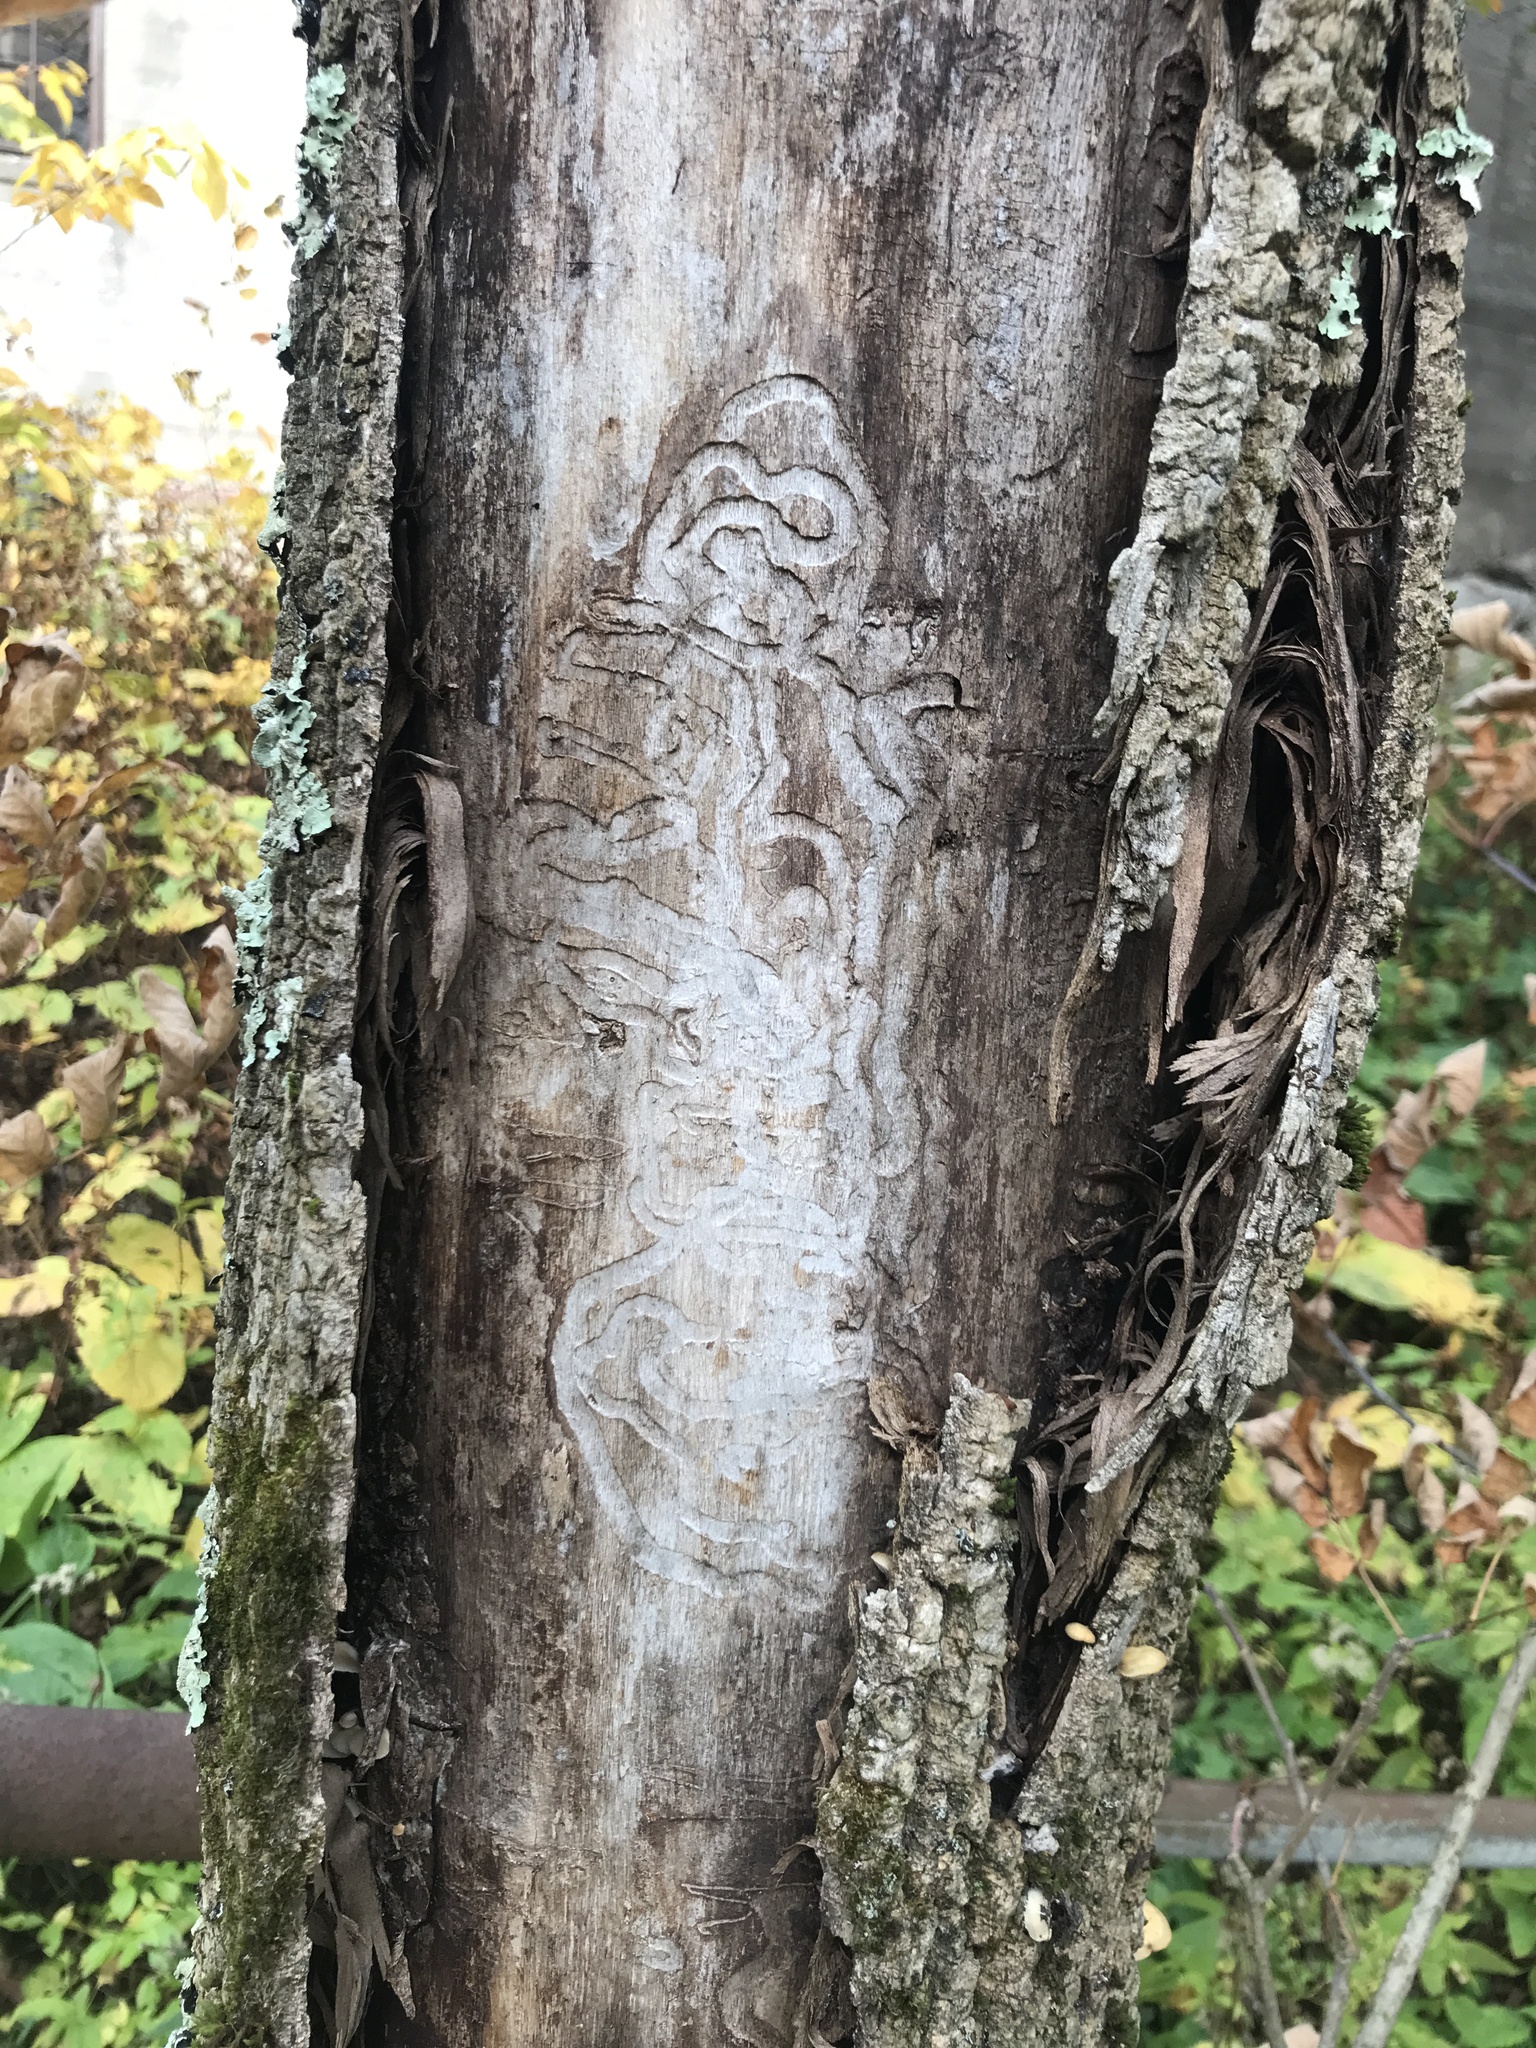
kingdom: Animalia
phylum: Arthropoda
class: Insecta
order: Coleoptera
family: Buprestidae
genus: Agrilus
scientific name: Agrilus planipennis
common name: Emerald ash borer
